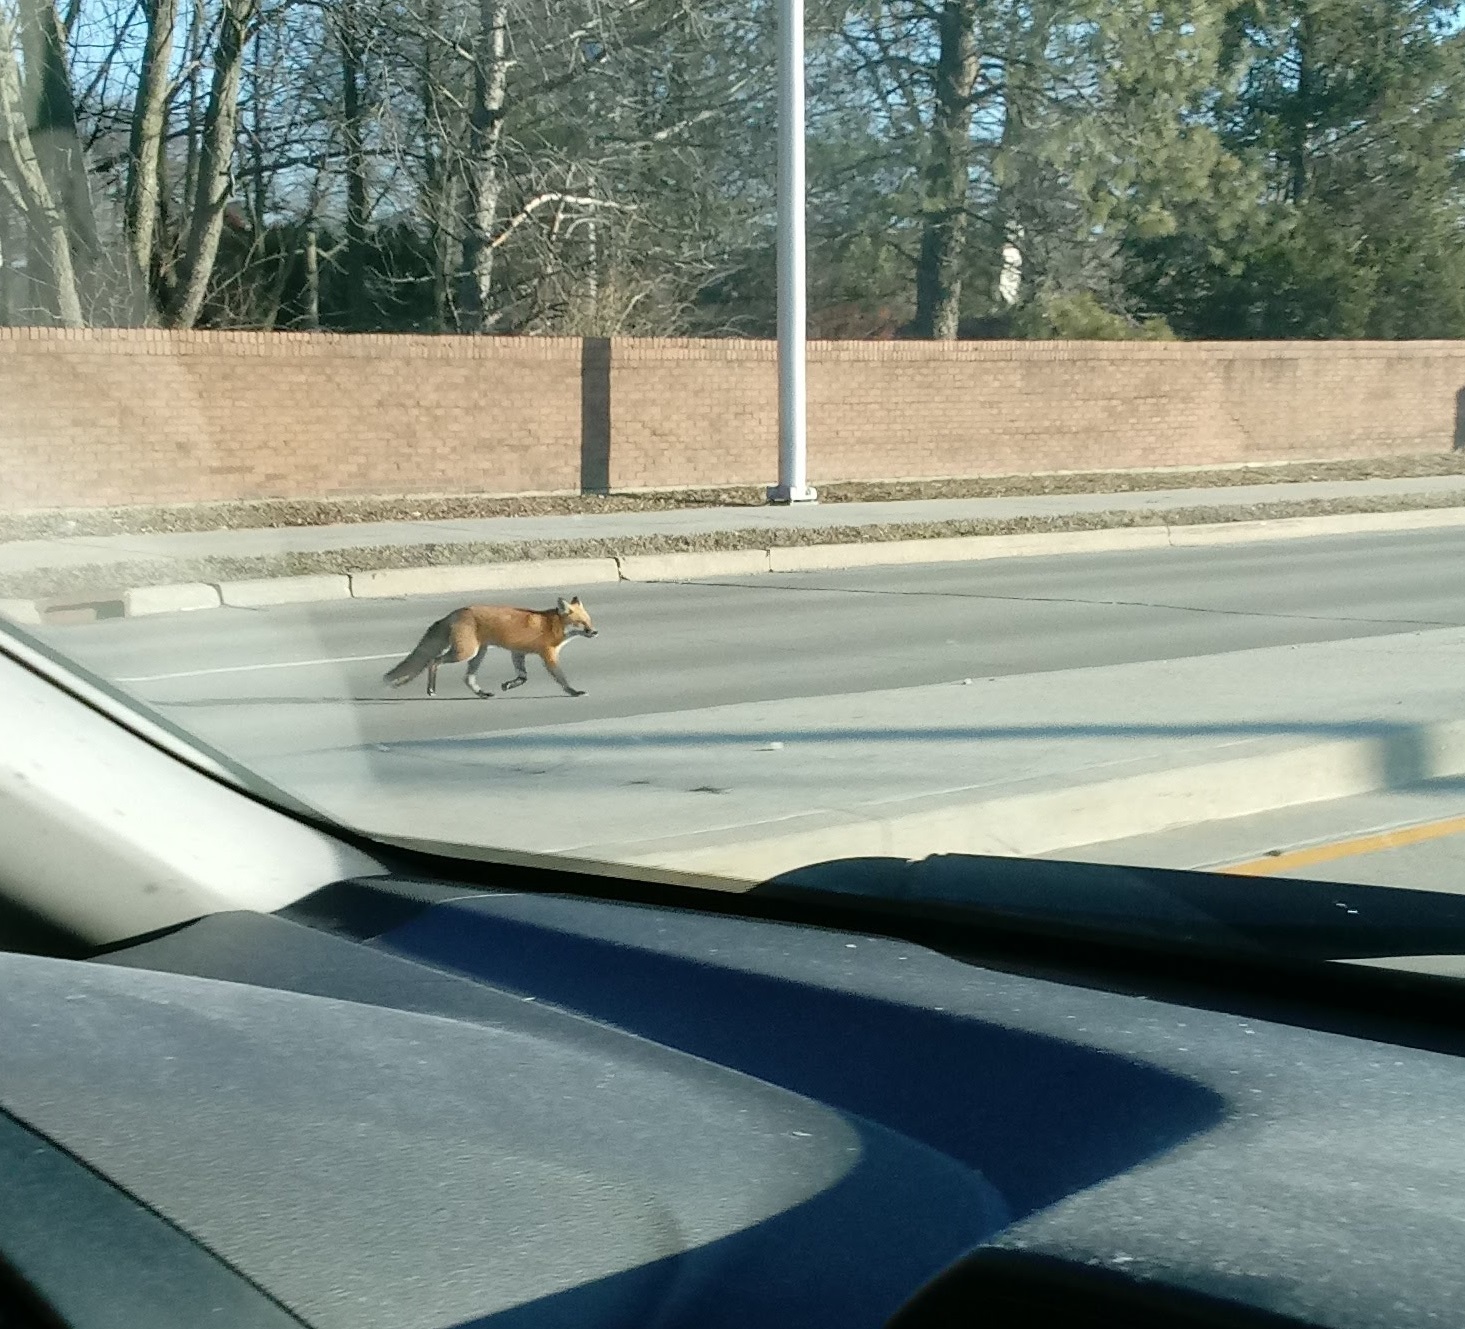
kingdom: Animalia
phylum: Chordata
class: Mammalia
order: Carnivora
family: Canidae
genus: Vulpes
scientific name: Vulpes vulpes
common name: Red fox
